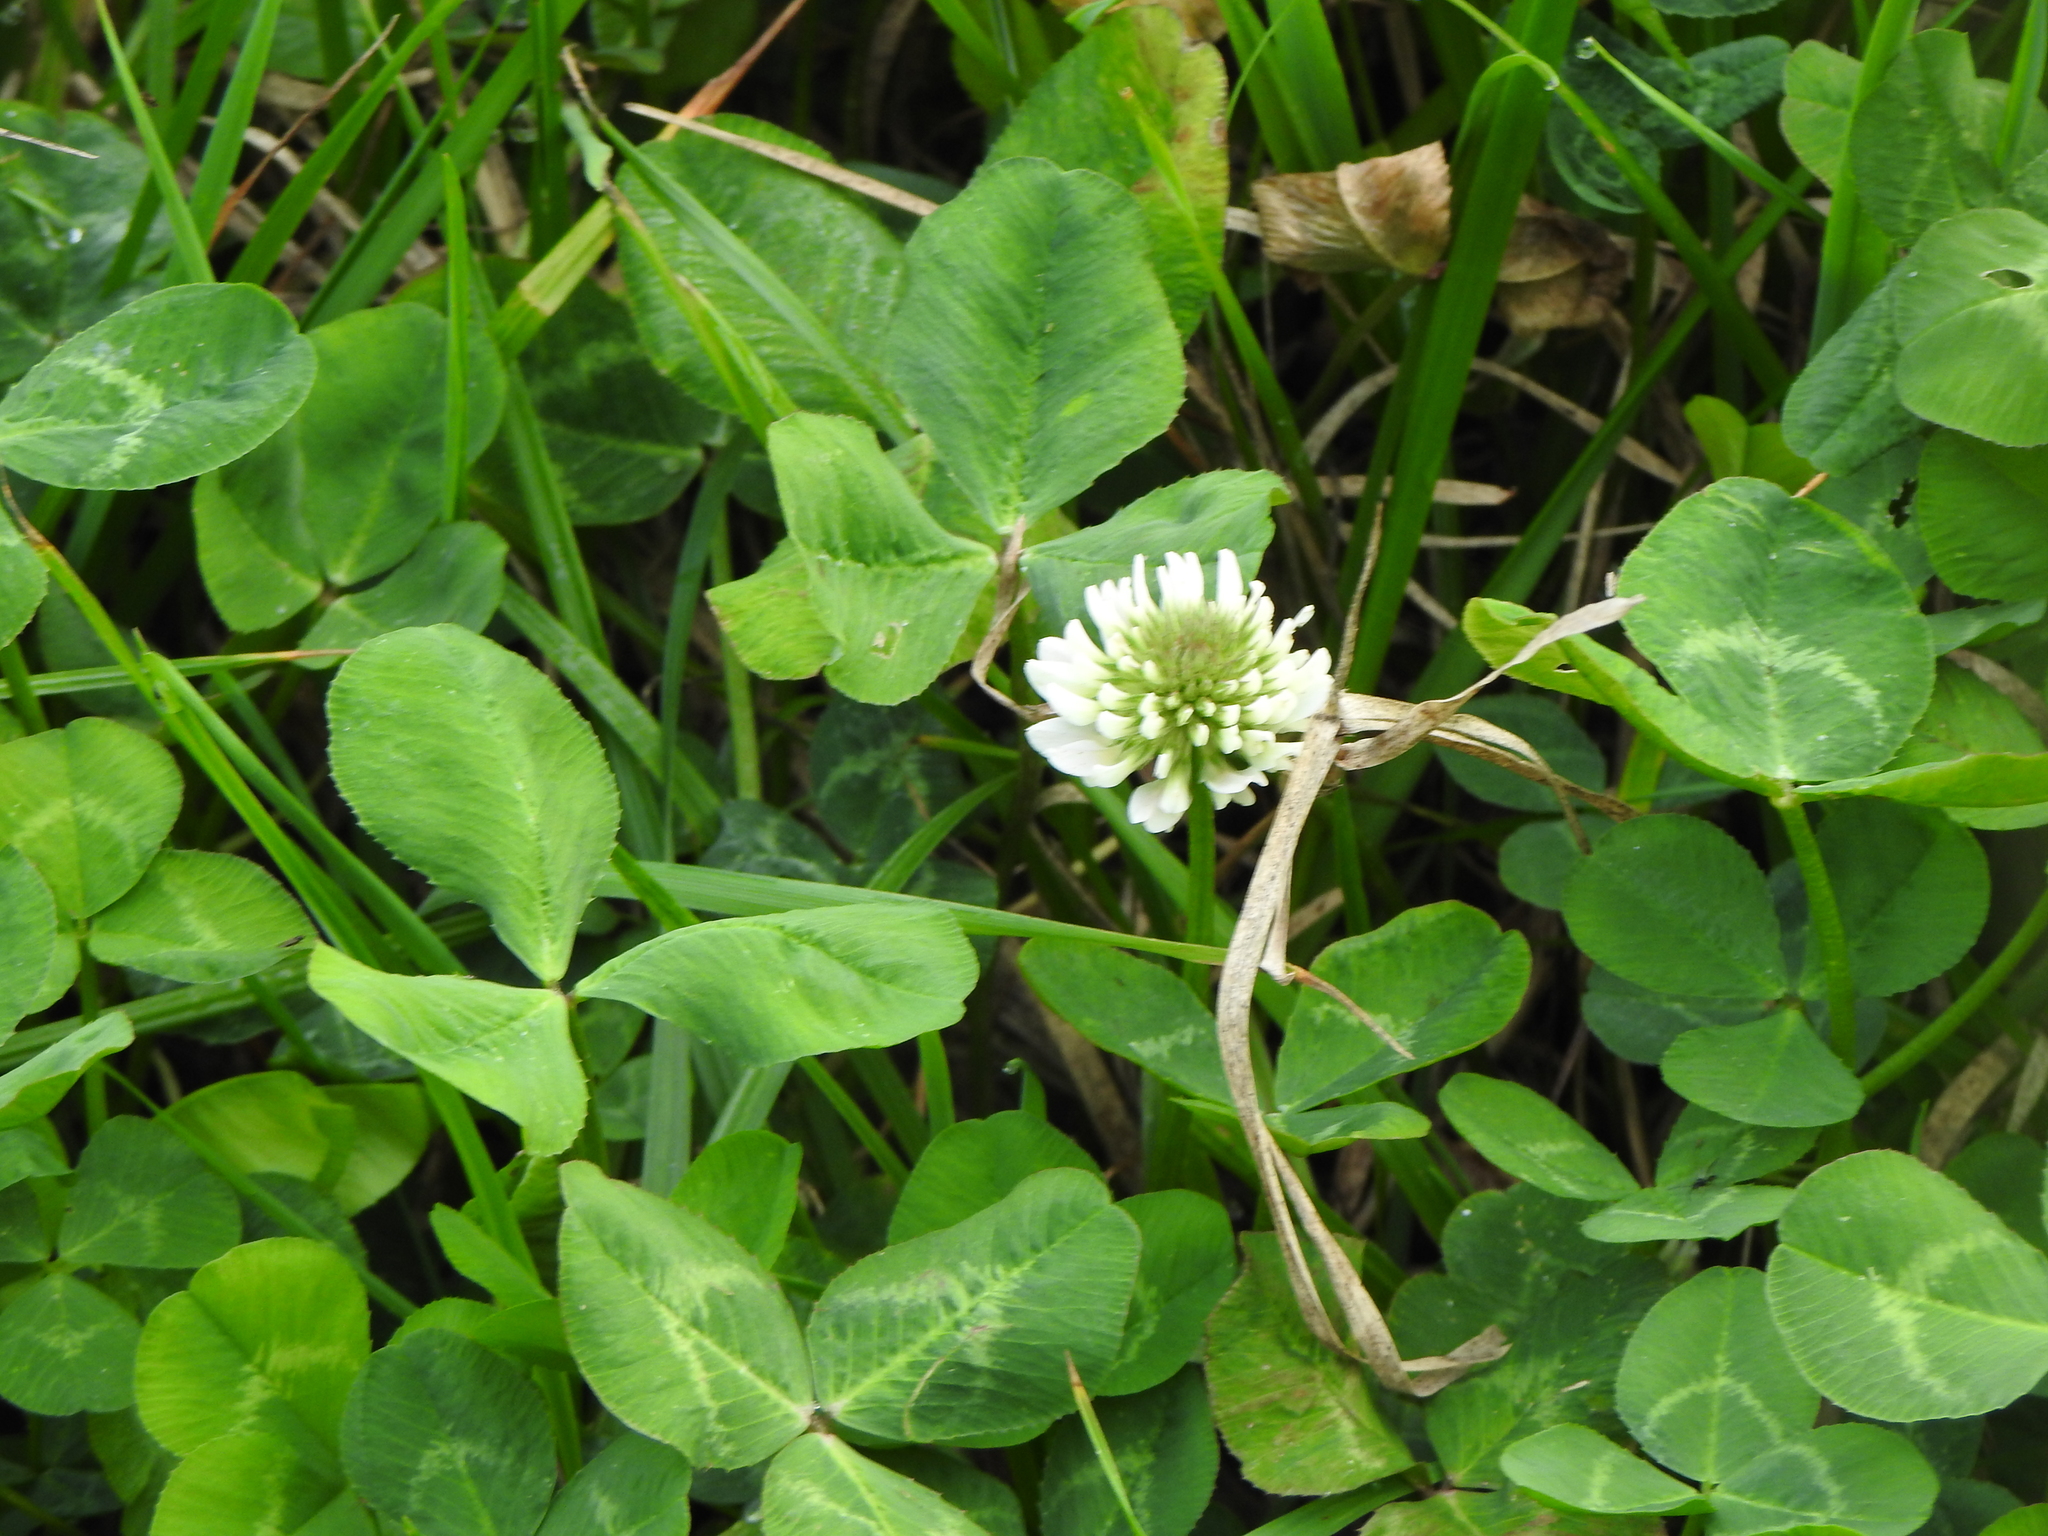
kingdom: Plantae
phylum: Tracheophyta
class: Magnoliopsida
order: Fabales
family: Fabaceae
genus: Trifolium
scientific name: Trifolium repens
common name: White clover
